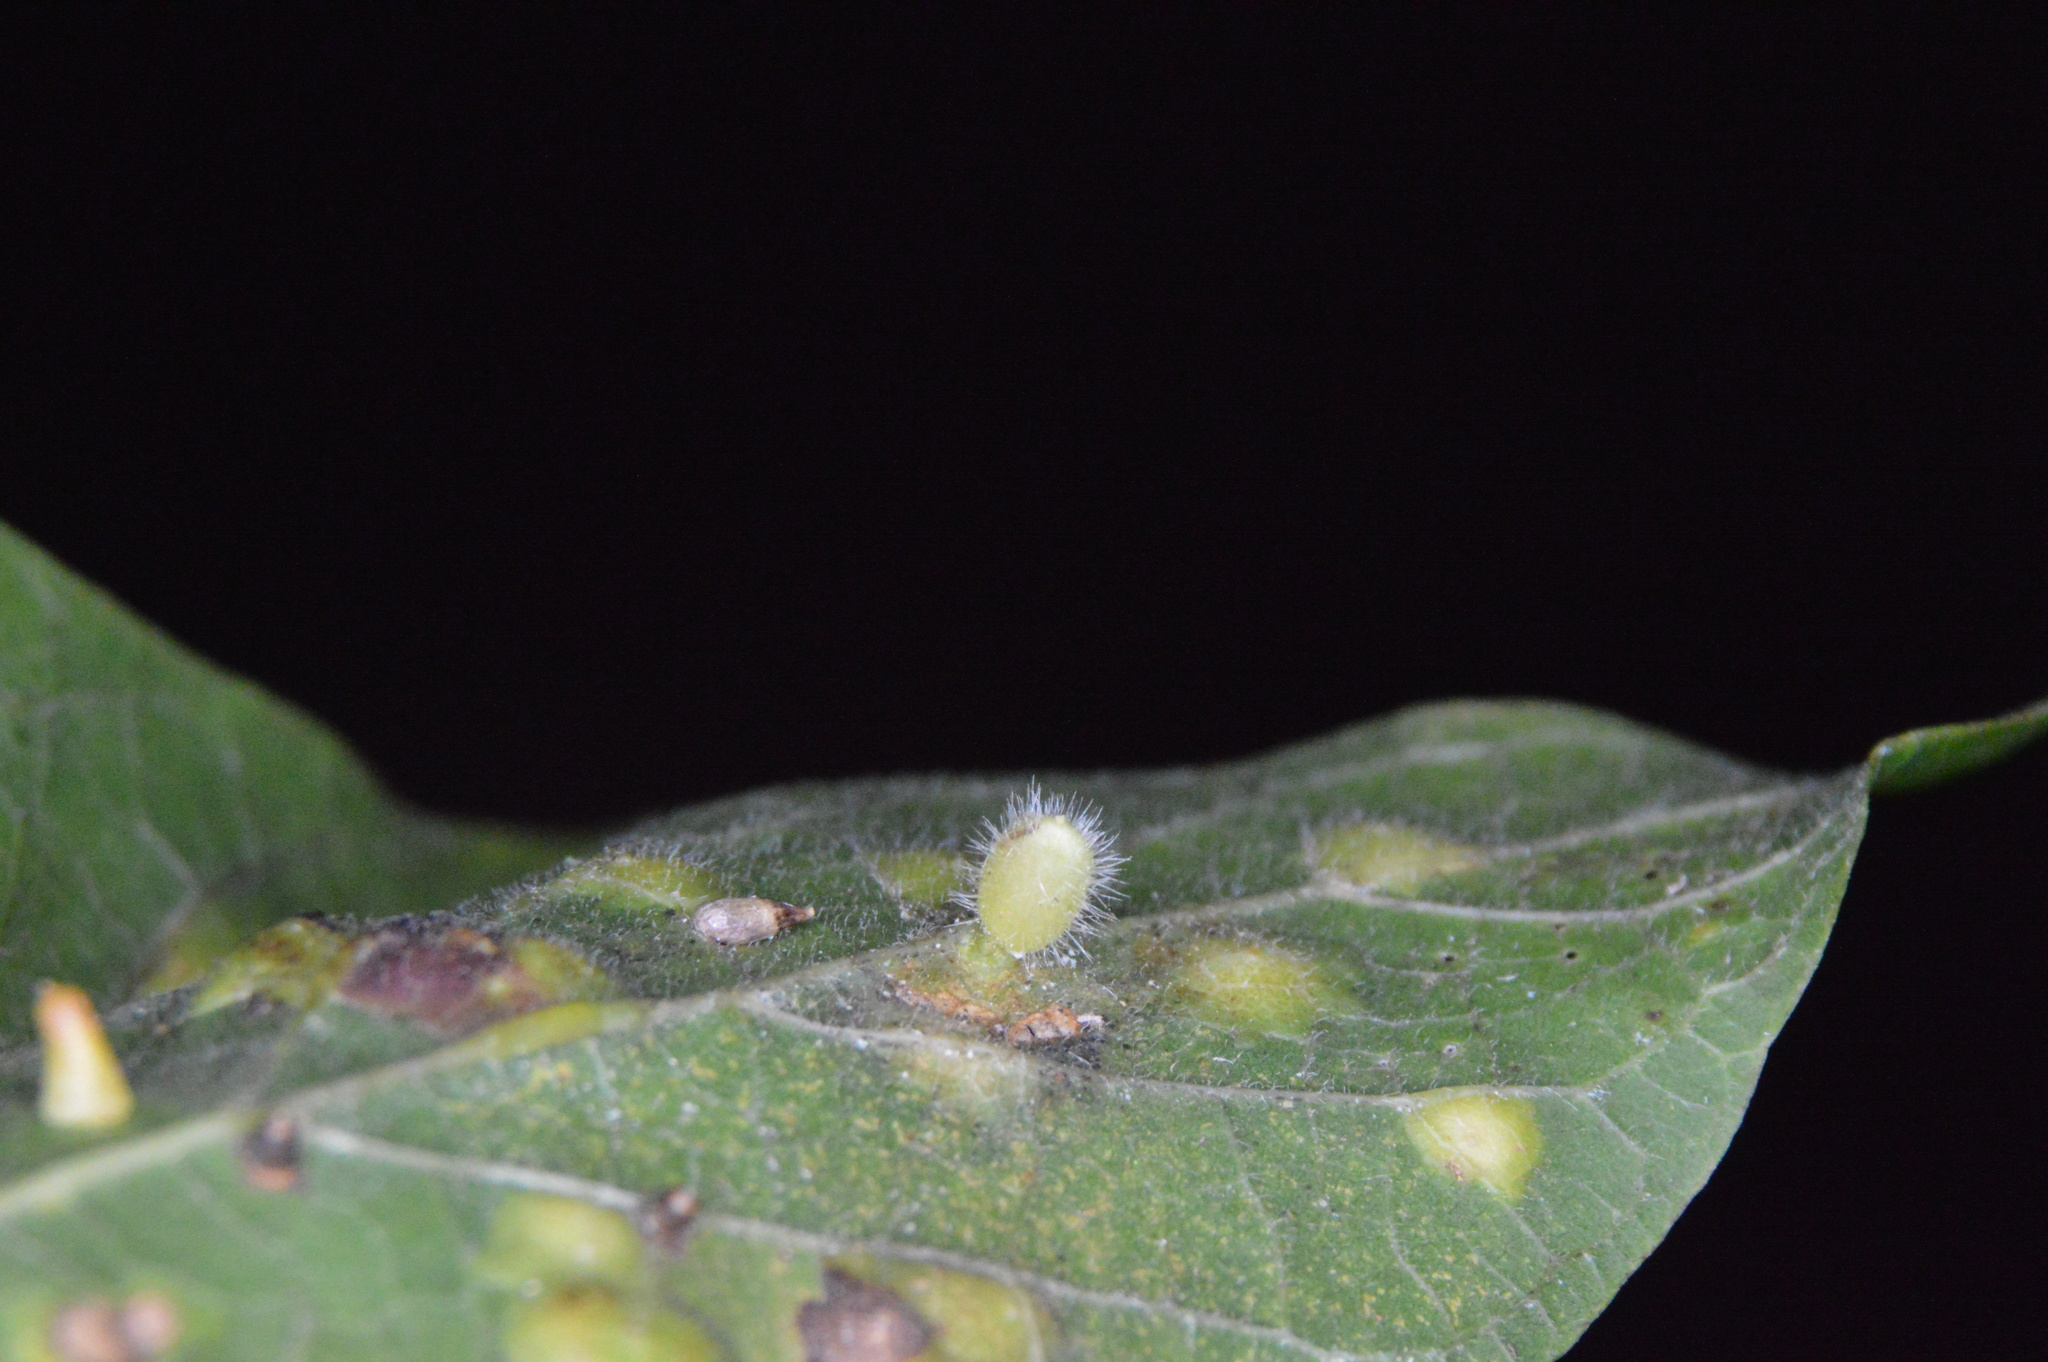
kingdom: Animalia
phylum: Arthropoda
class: Insecta
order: Diptera
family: Cecidomyiidae
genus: Celticecis
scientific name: Celticecis pubescens
